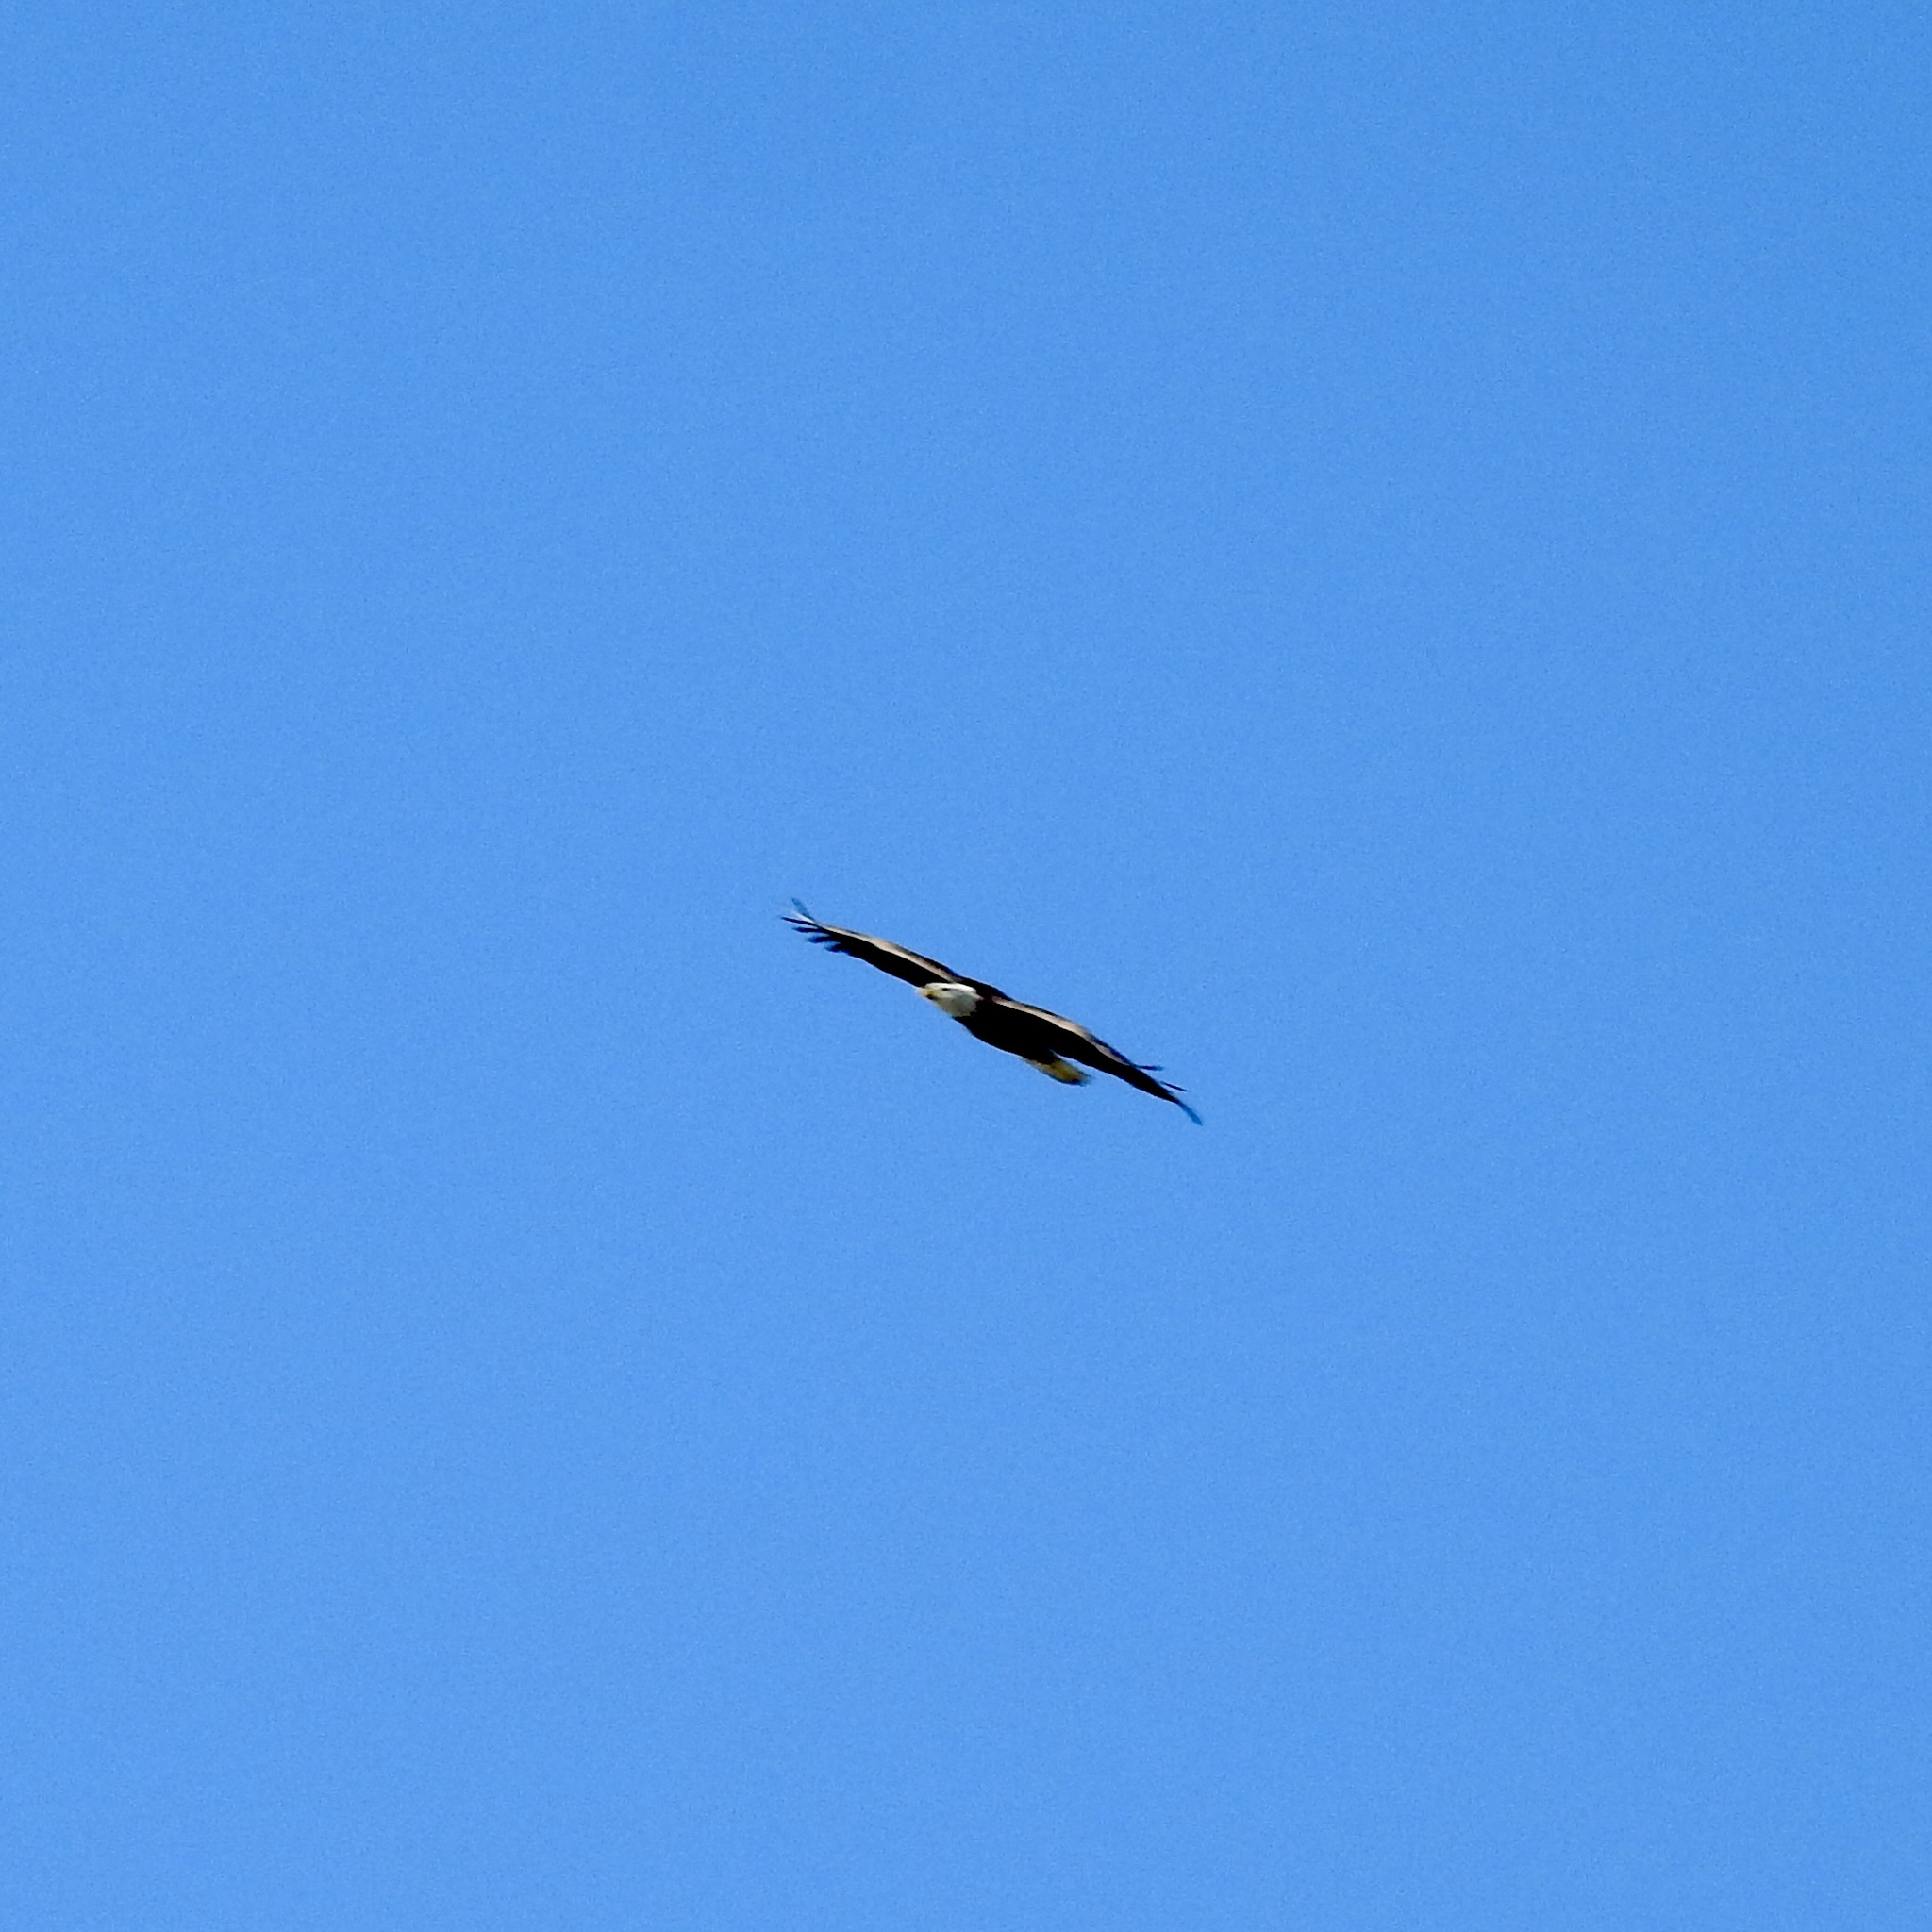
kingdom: Animalia
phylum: Chordata
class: Aves
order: Accipitriformes
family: Accipitridae
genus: Haliaeetus
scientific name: Haliaeetus leucocephalus
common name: Bald eagle
